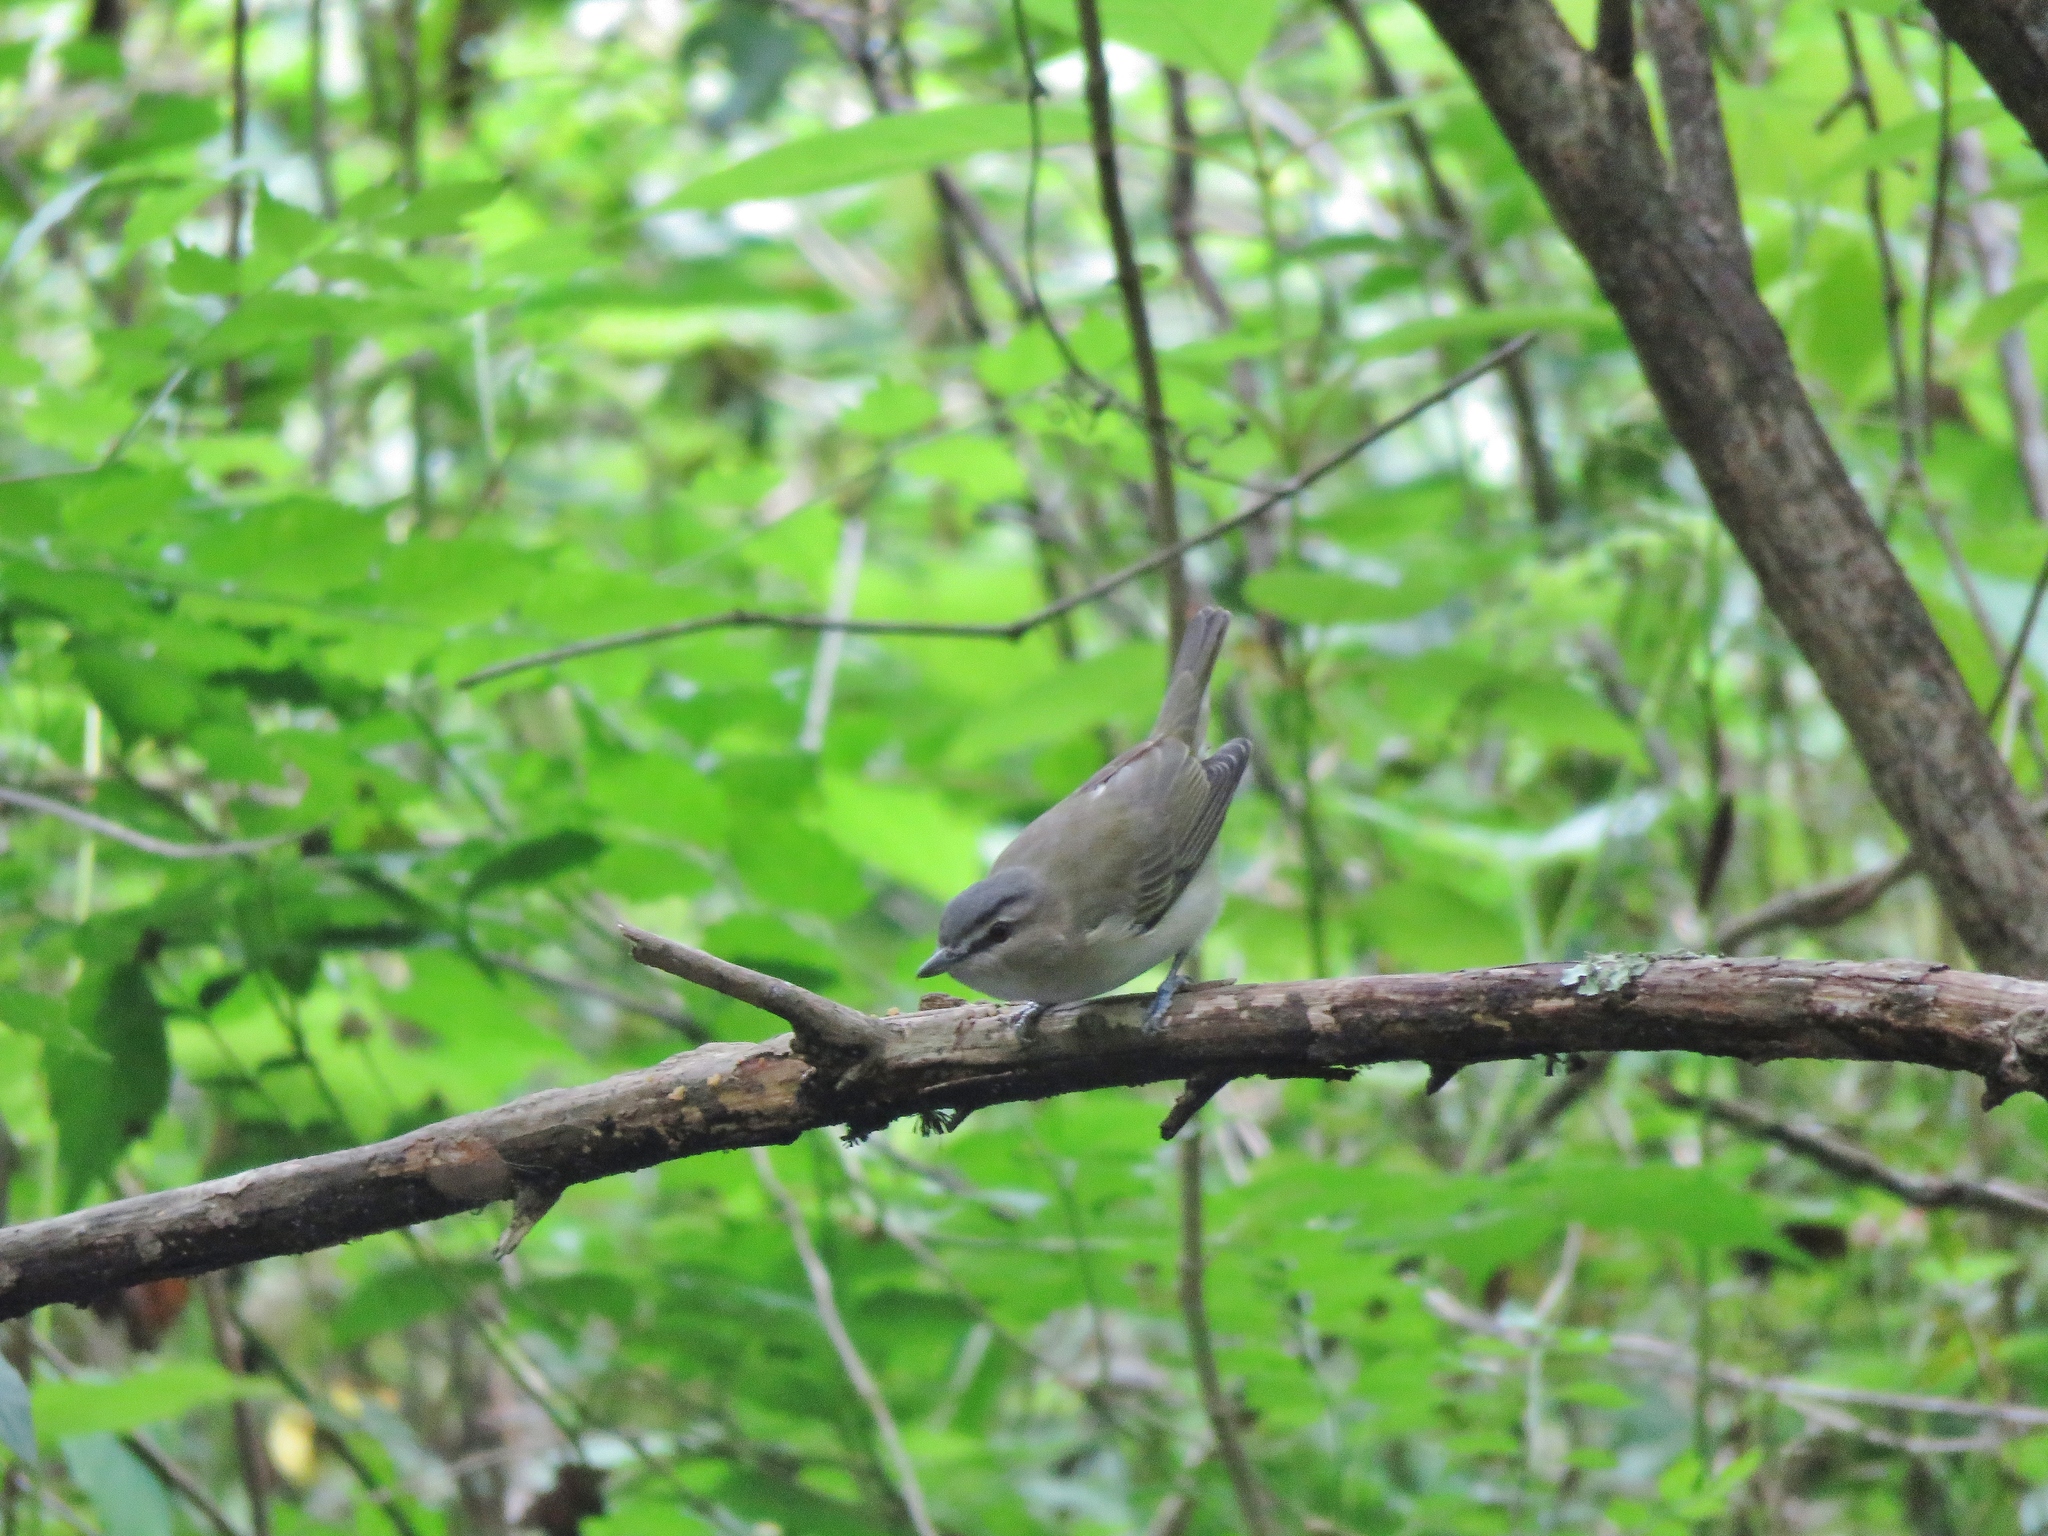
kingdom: Animalia
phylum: Chordata
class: Aves
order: Passeriformes
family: Vireonidae
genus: Vireo
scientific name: Vireo olivaceus
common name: Red-eyed vireo
